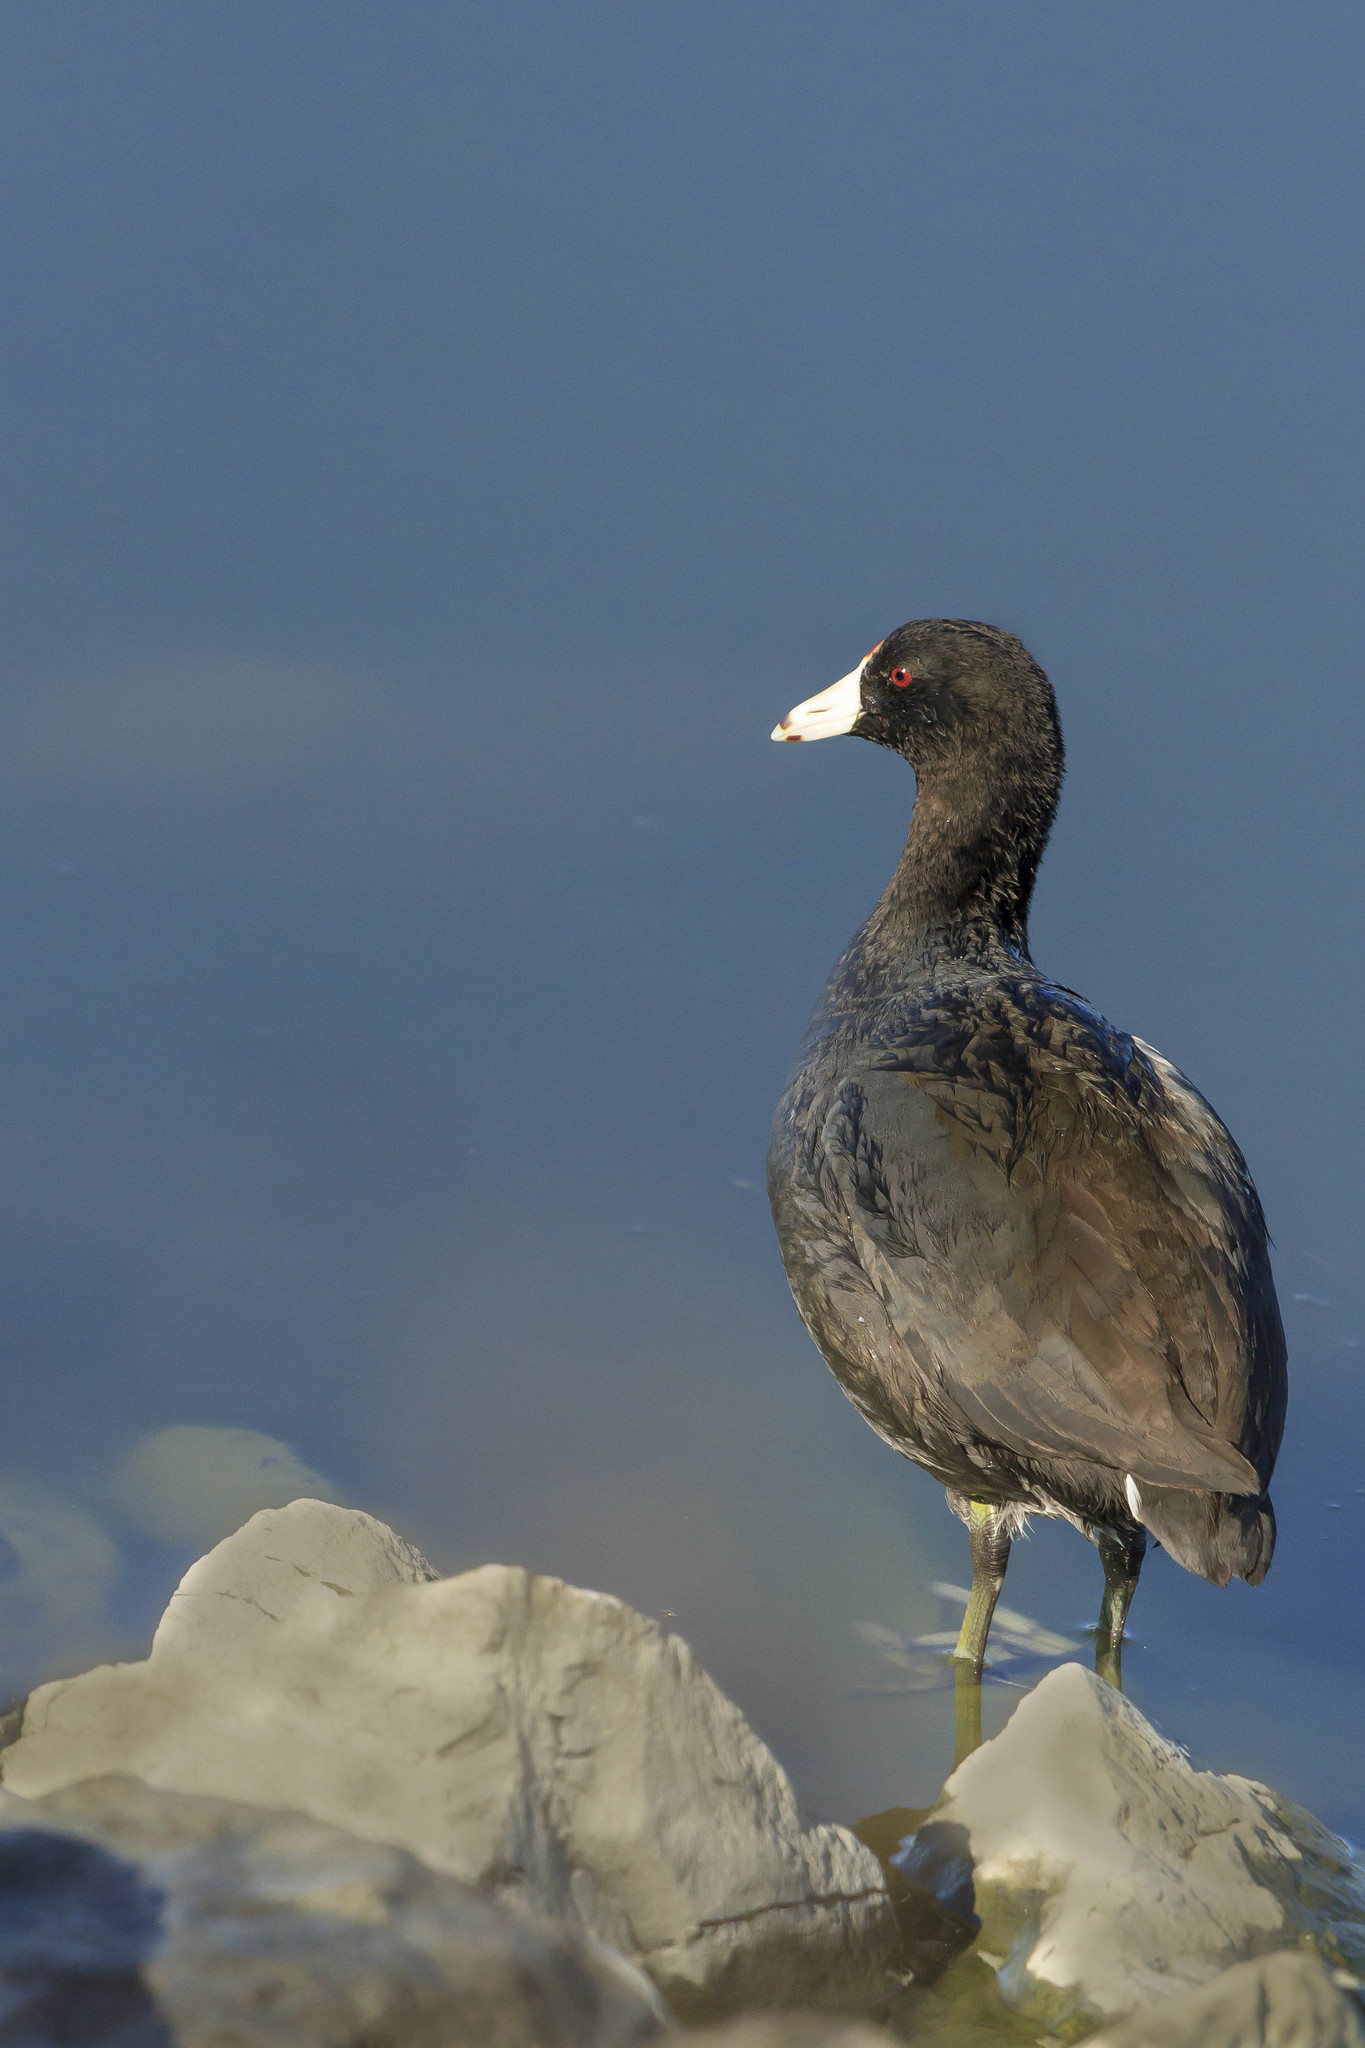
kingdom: Animalia
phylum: Chordata
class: Aves
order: Gruiformes
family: Rallidae
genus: Fulica
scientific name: Fulica americana
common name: American coot
